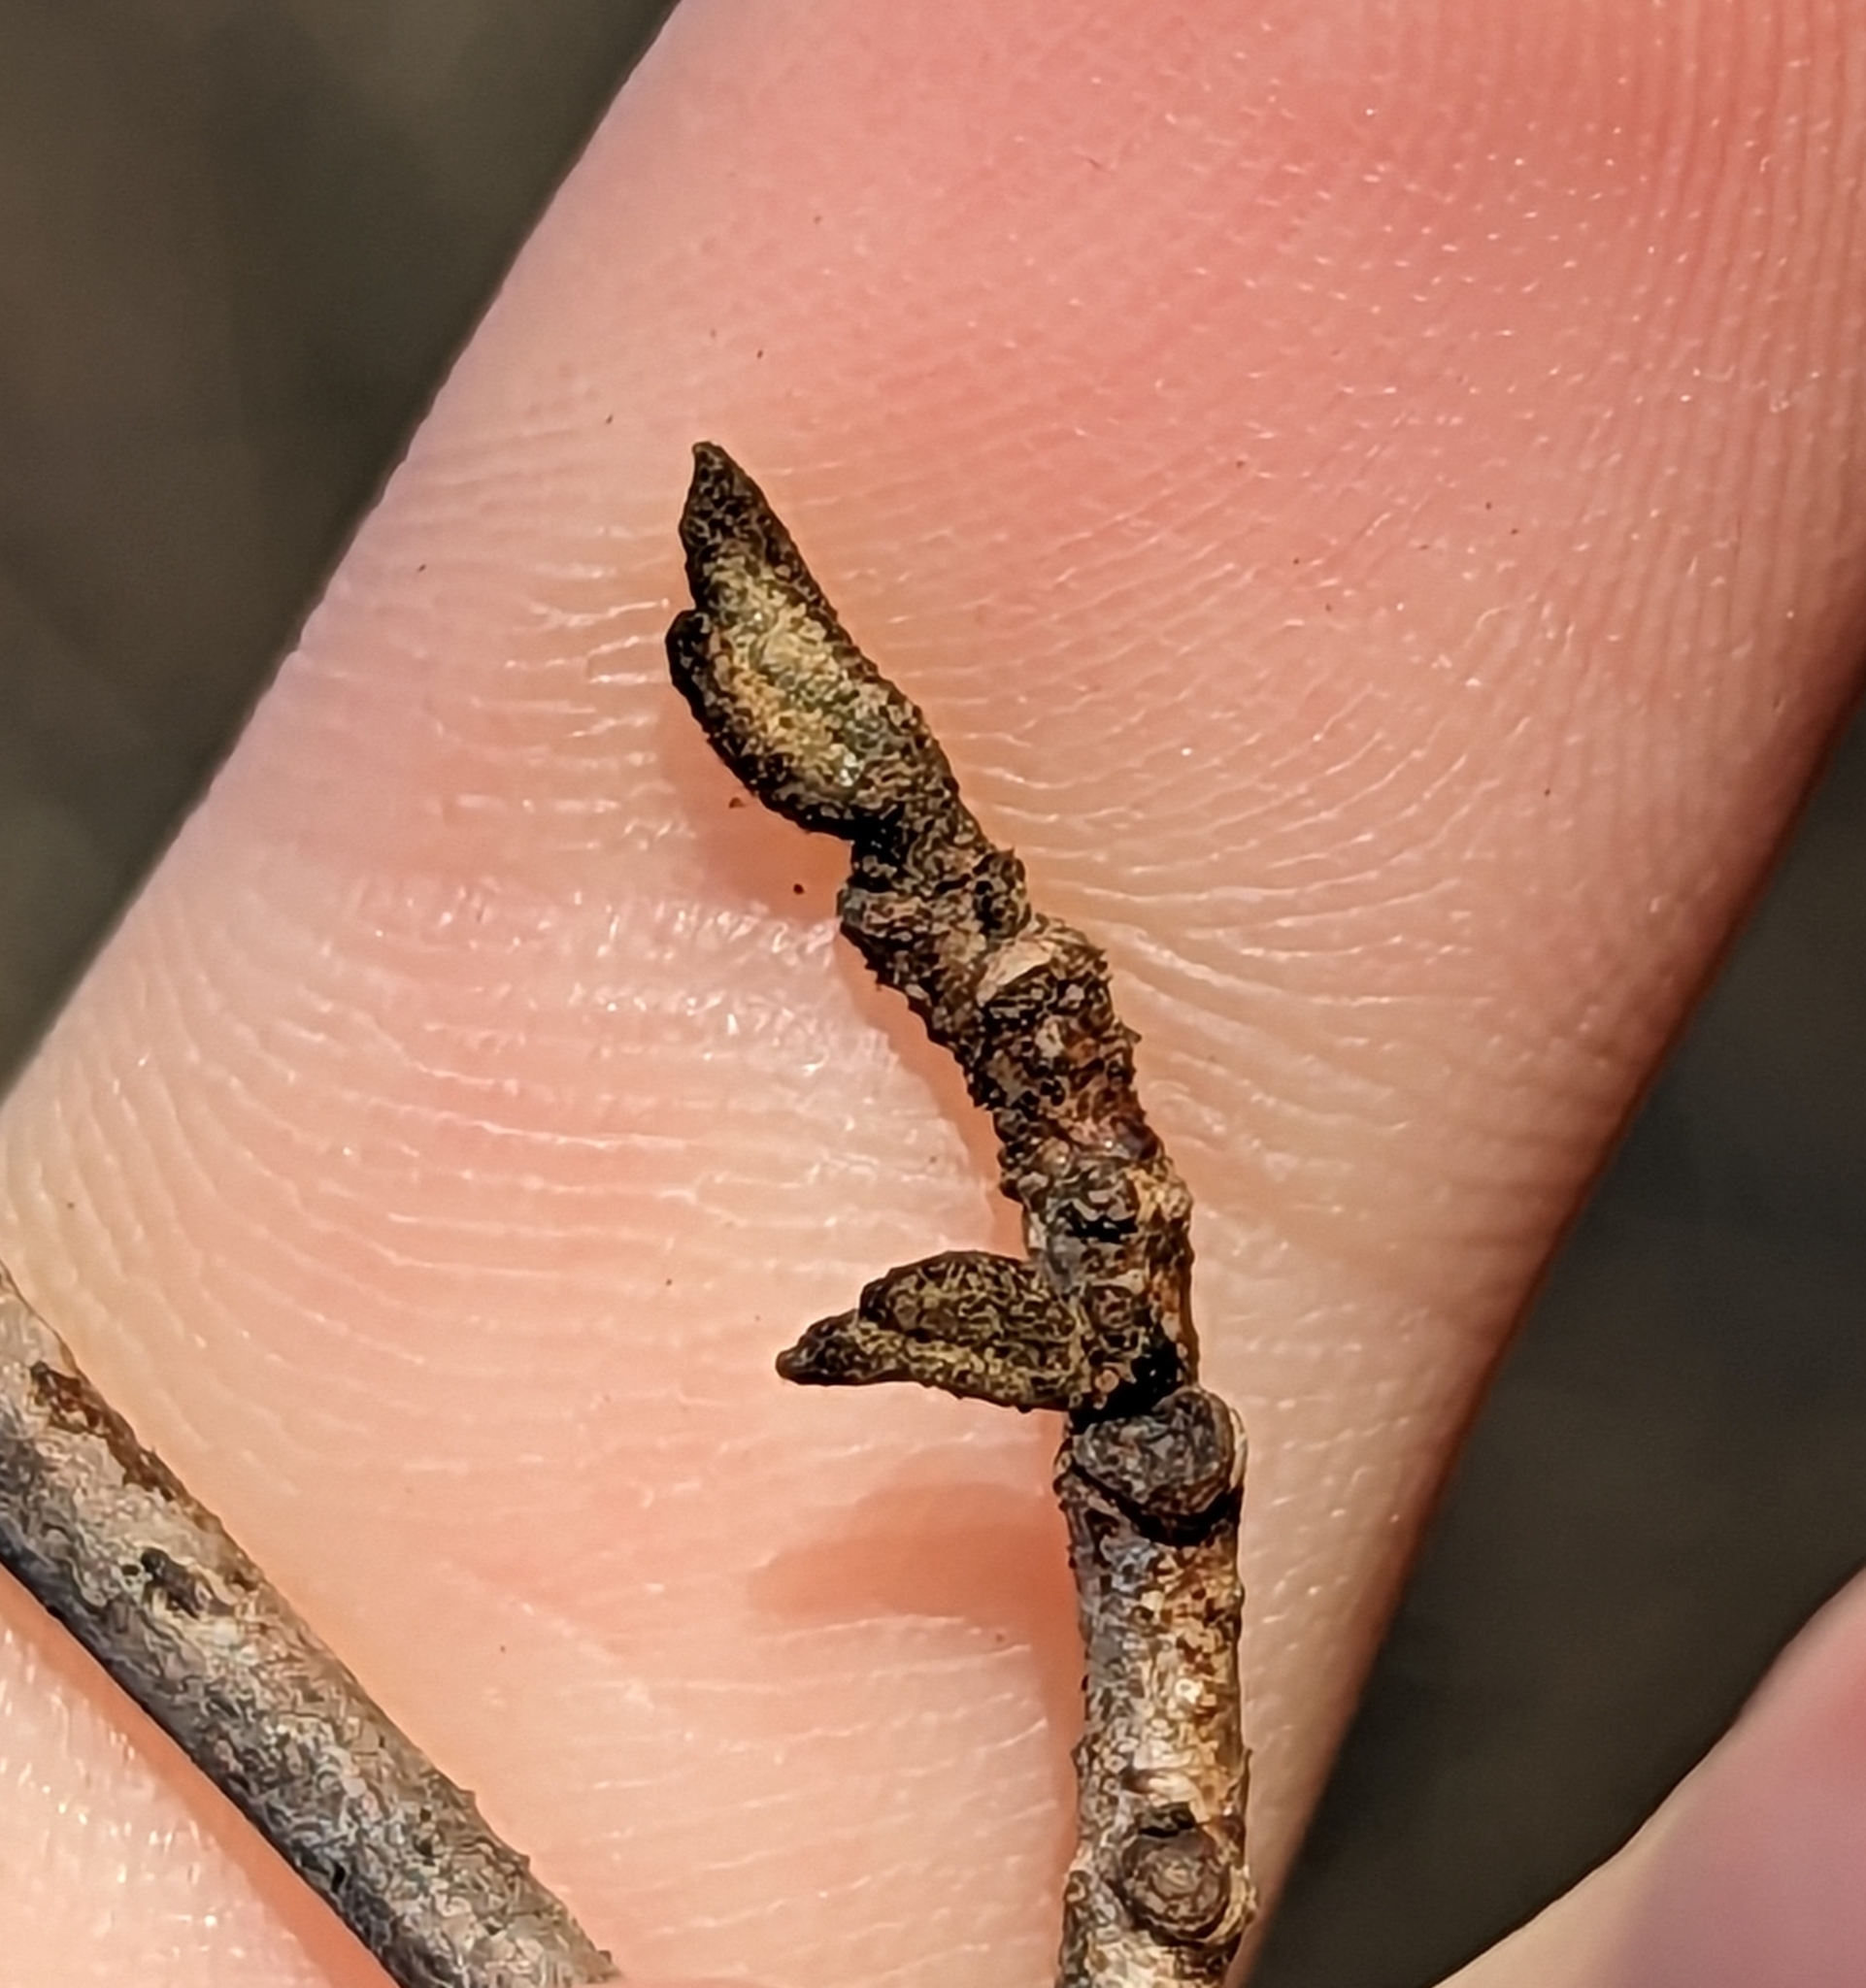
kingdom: Plantae
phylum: Tracheophyta
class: Magnoliopsida
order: Saxifragales
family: Hamamelidaceae
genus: Hamamelis
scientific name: Hamamelis virginiana
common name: Witch-hazel
